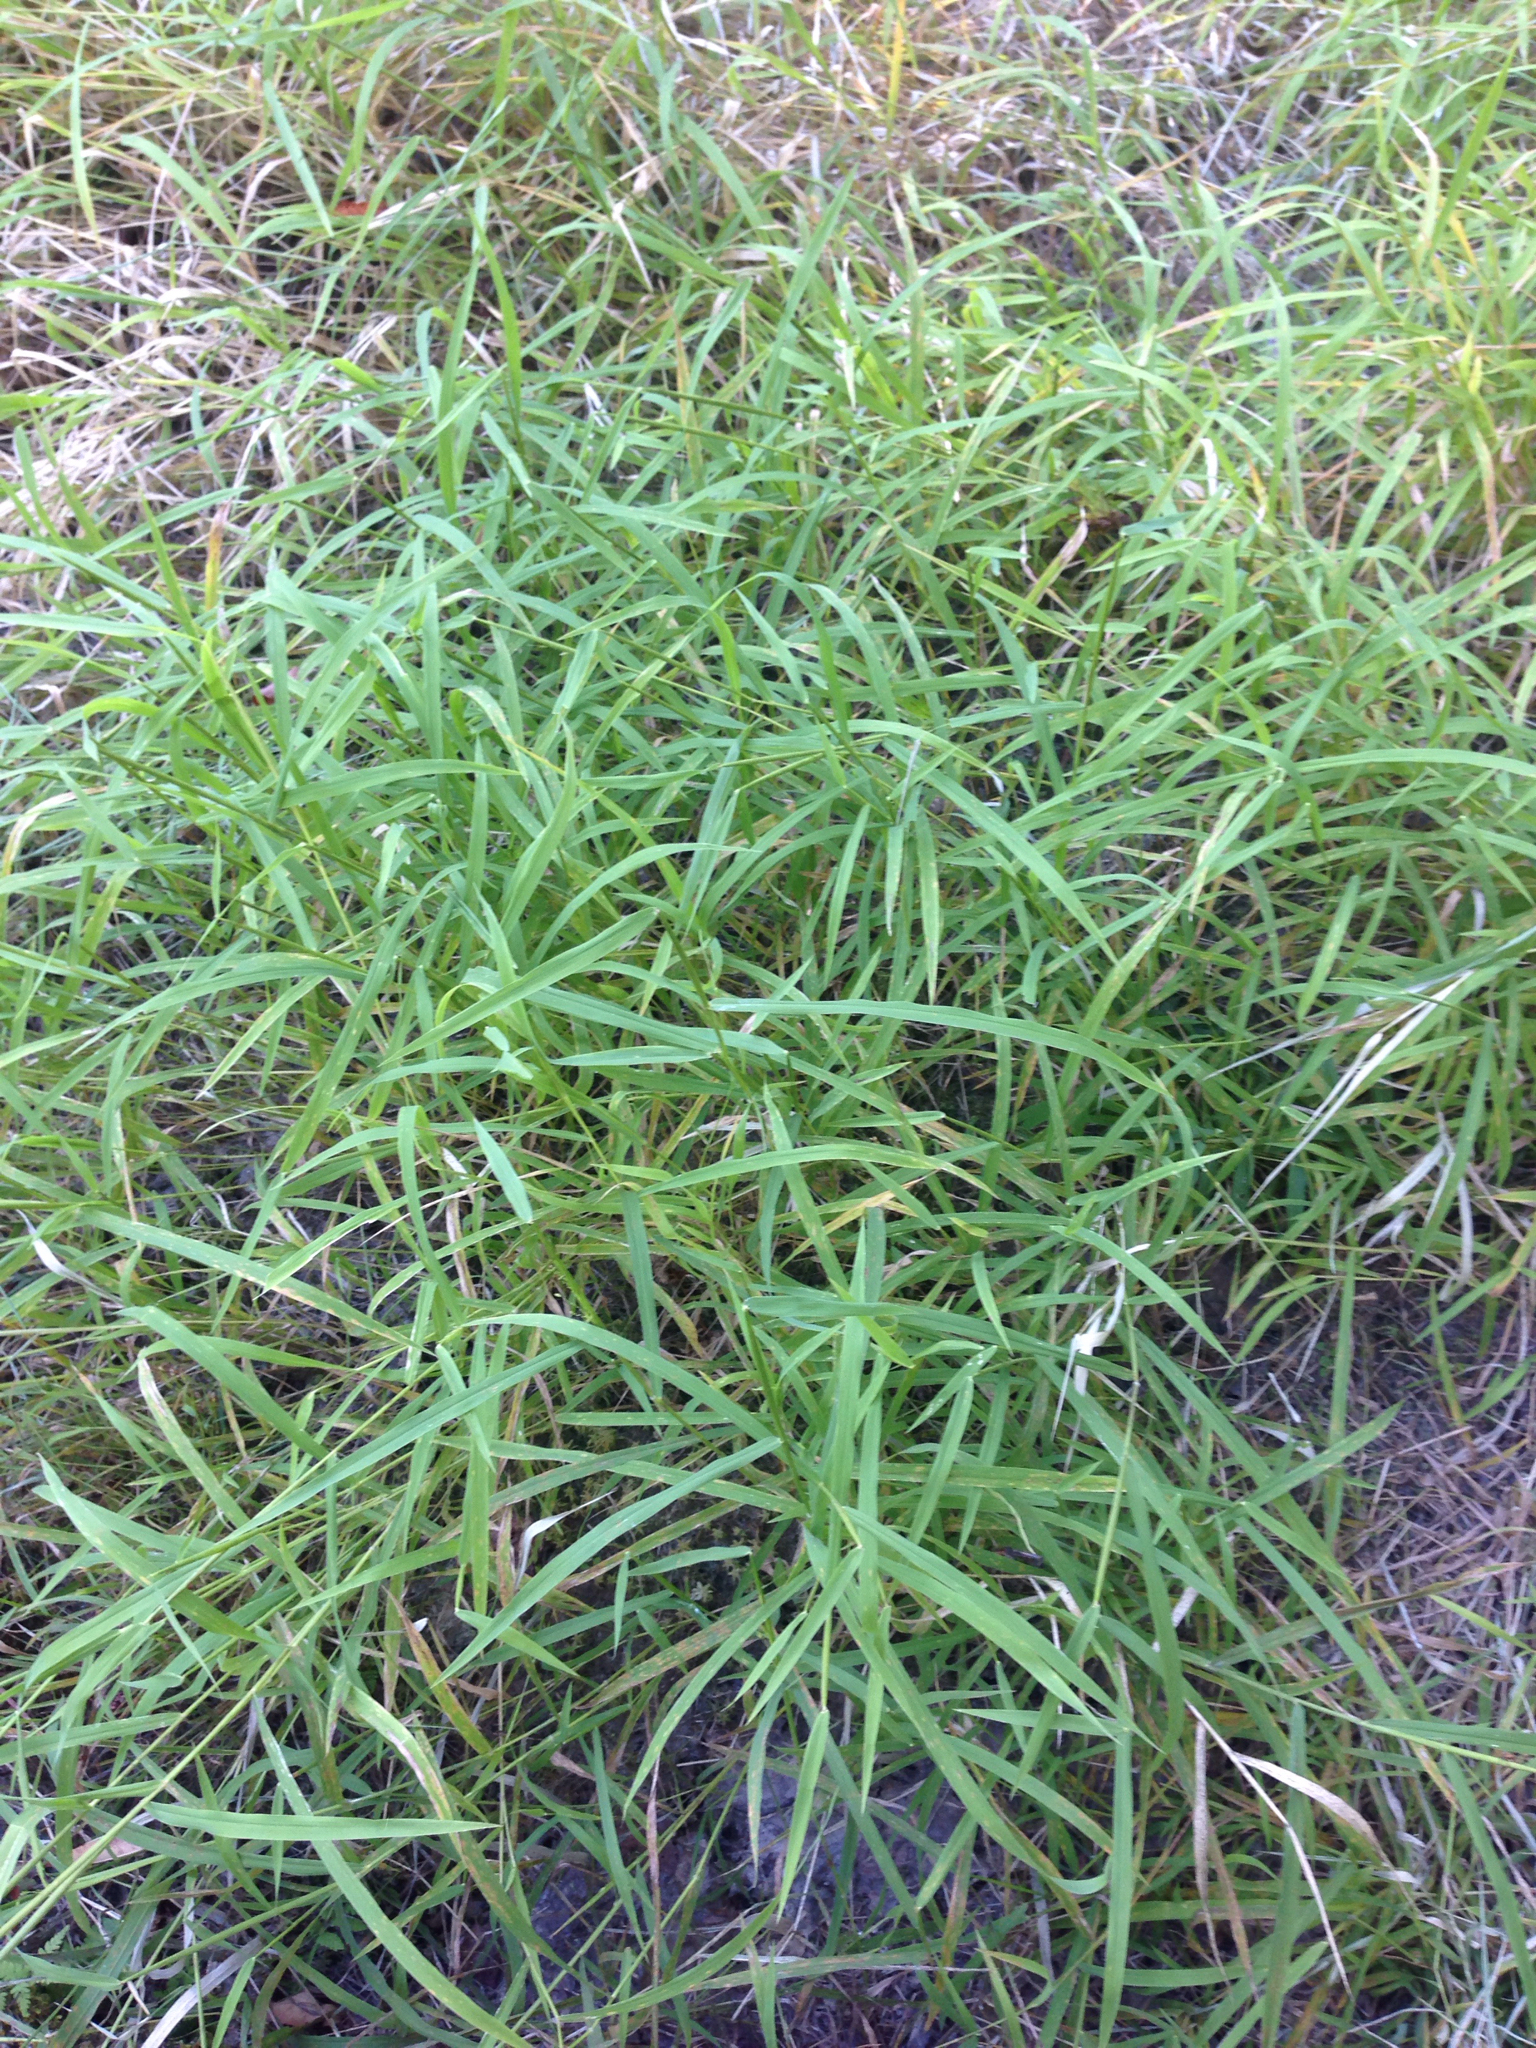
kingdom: Plantae
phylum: Tracheophyta
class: Liliopsida
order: Poales
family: Poaceae
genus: Leersia
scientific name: Leersia oryzoides
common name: Cut-grass
